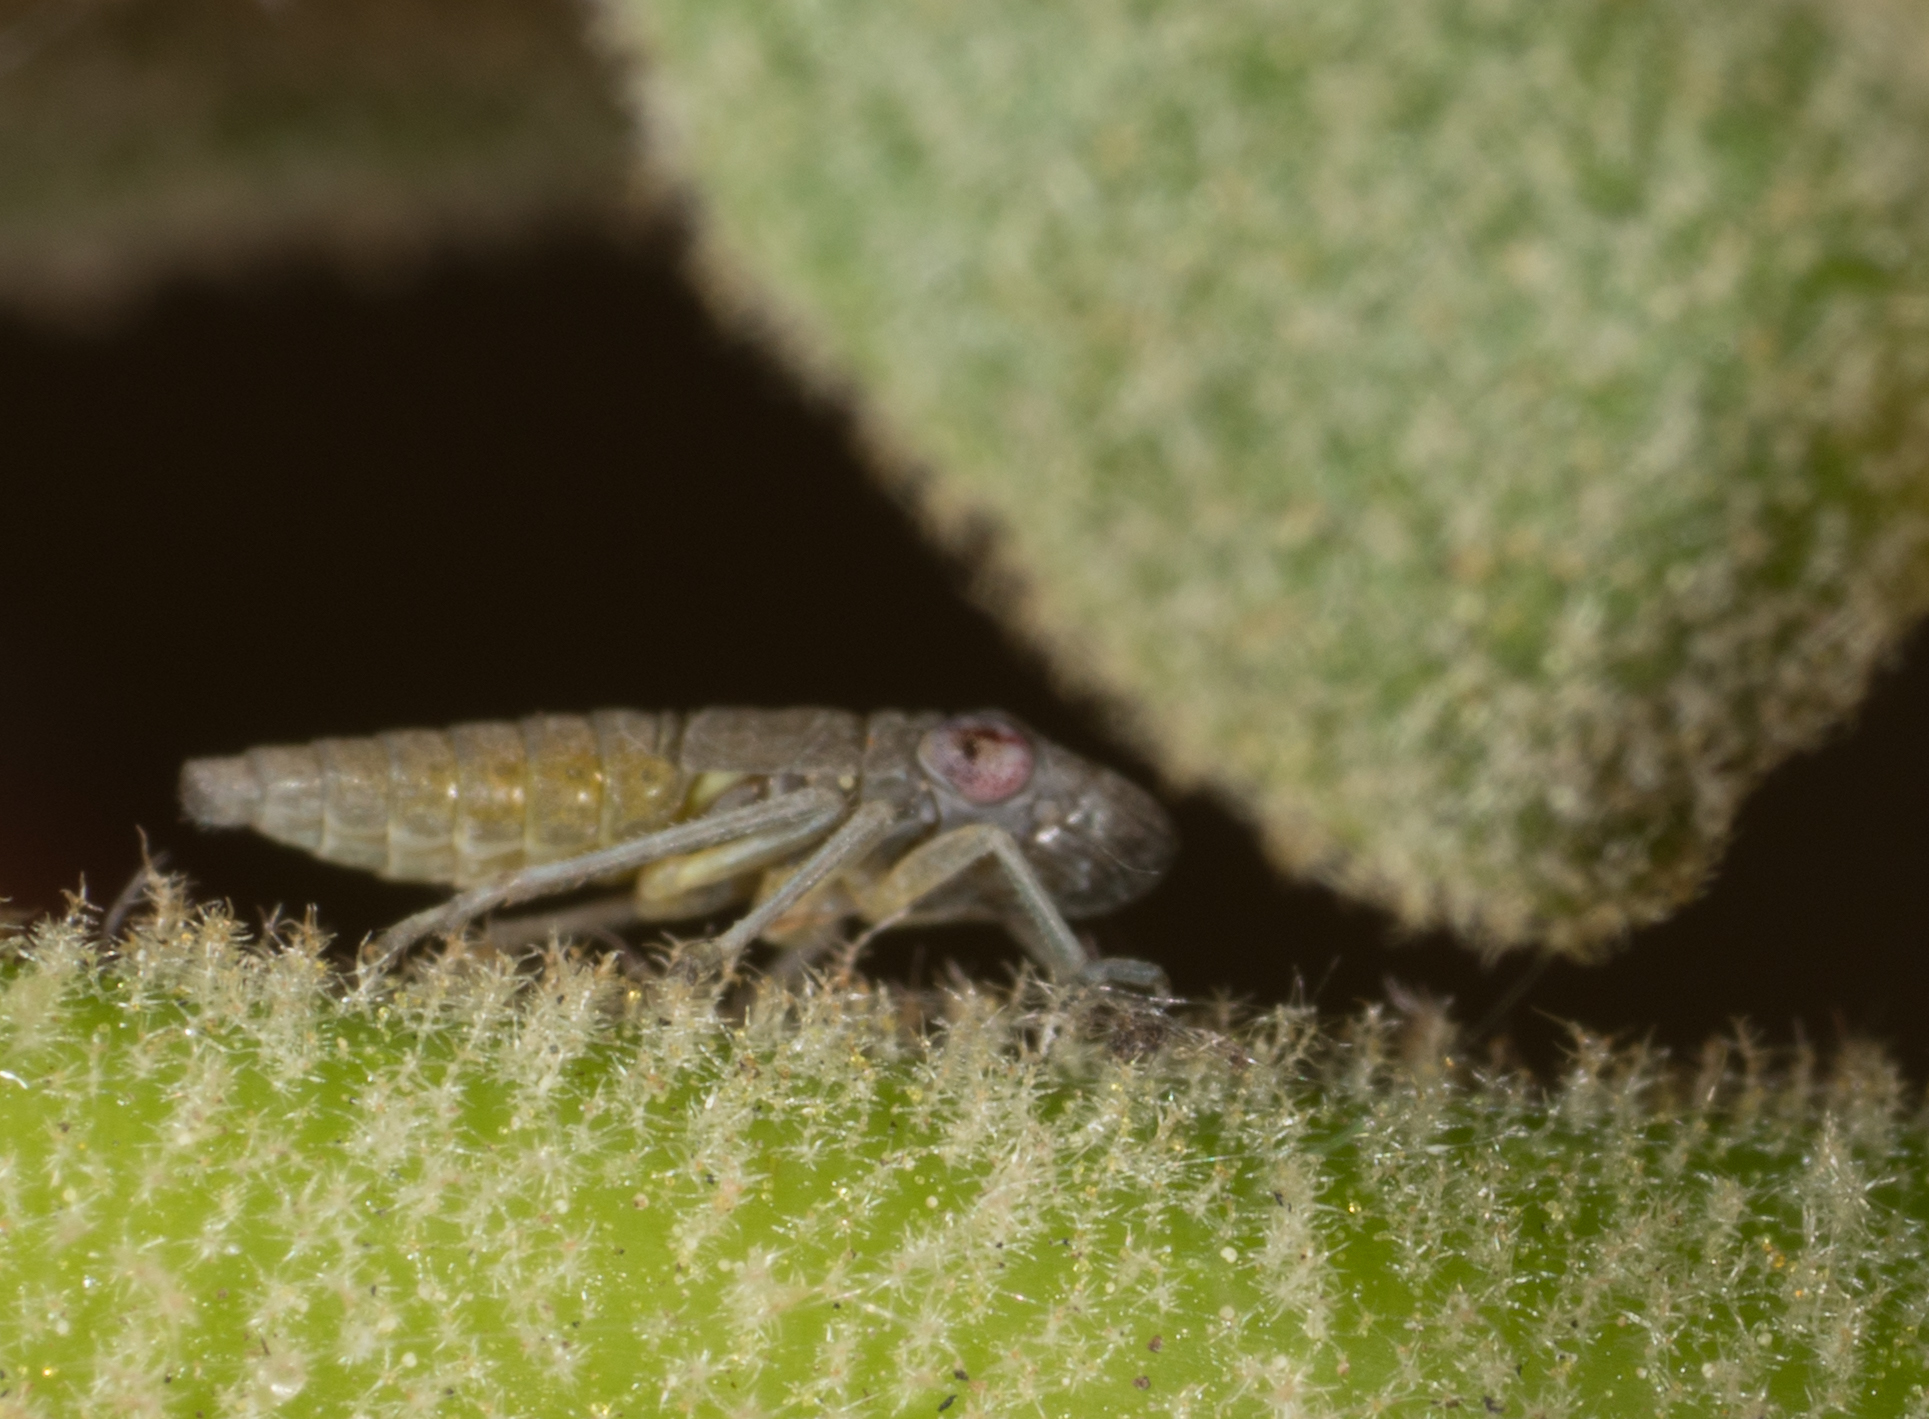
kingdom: Animalia
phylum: Arthropoda
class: Insecta
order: Hemiptera
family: Cicadellidae
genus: Homalodisca
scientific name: Homalodisca vitripennis
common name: Glassy-winged sharpshooter
